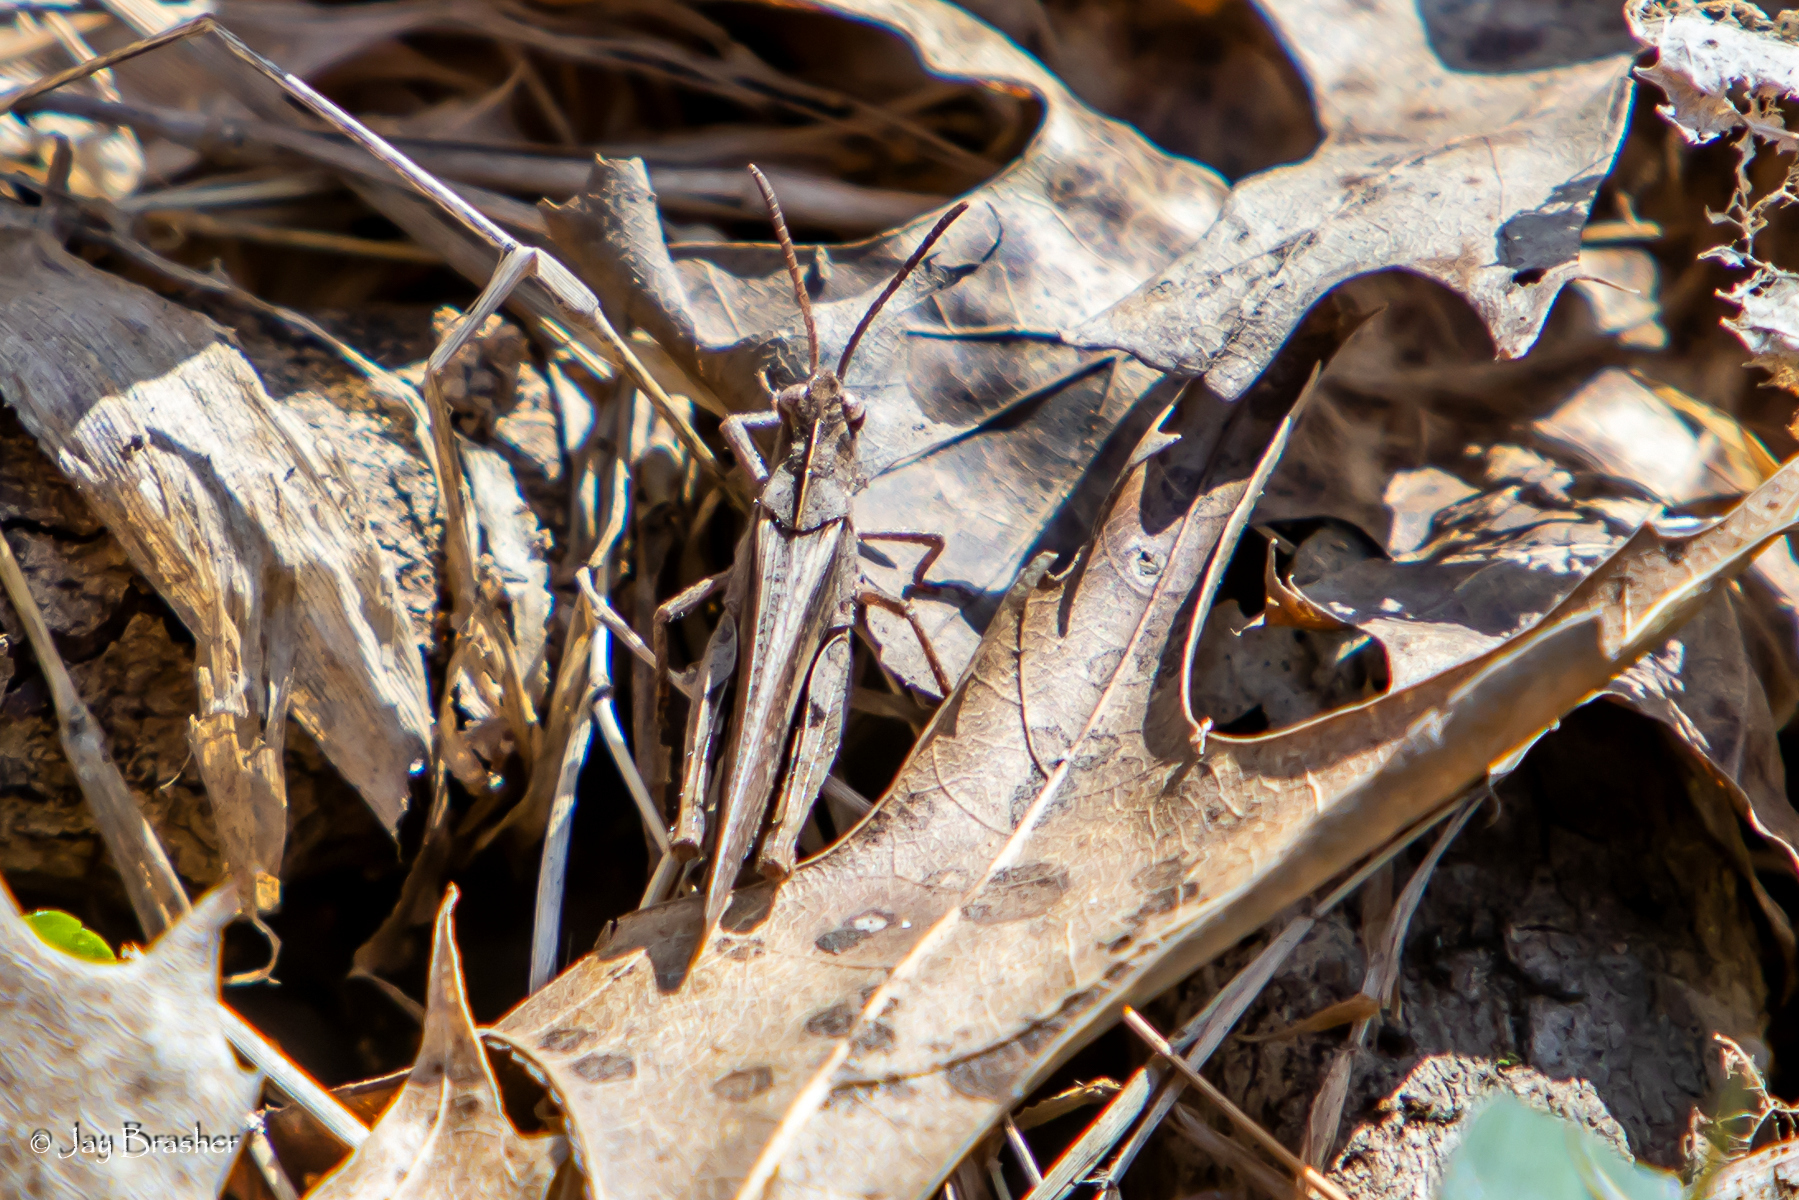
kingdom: Animalia
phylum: Arthropoda
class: Insecta
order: Orthoptera
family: Acrididae
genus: Chortophaga
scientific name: Chortophaga viridifasciata
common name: Green-striped grasshopper
